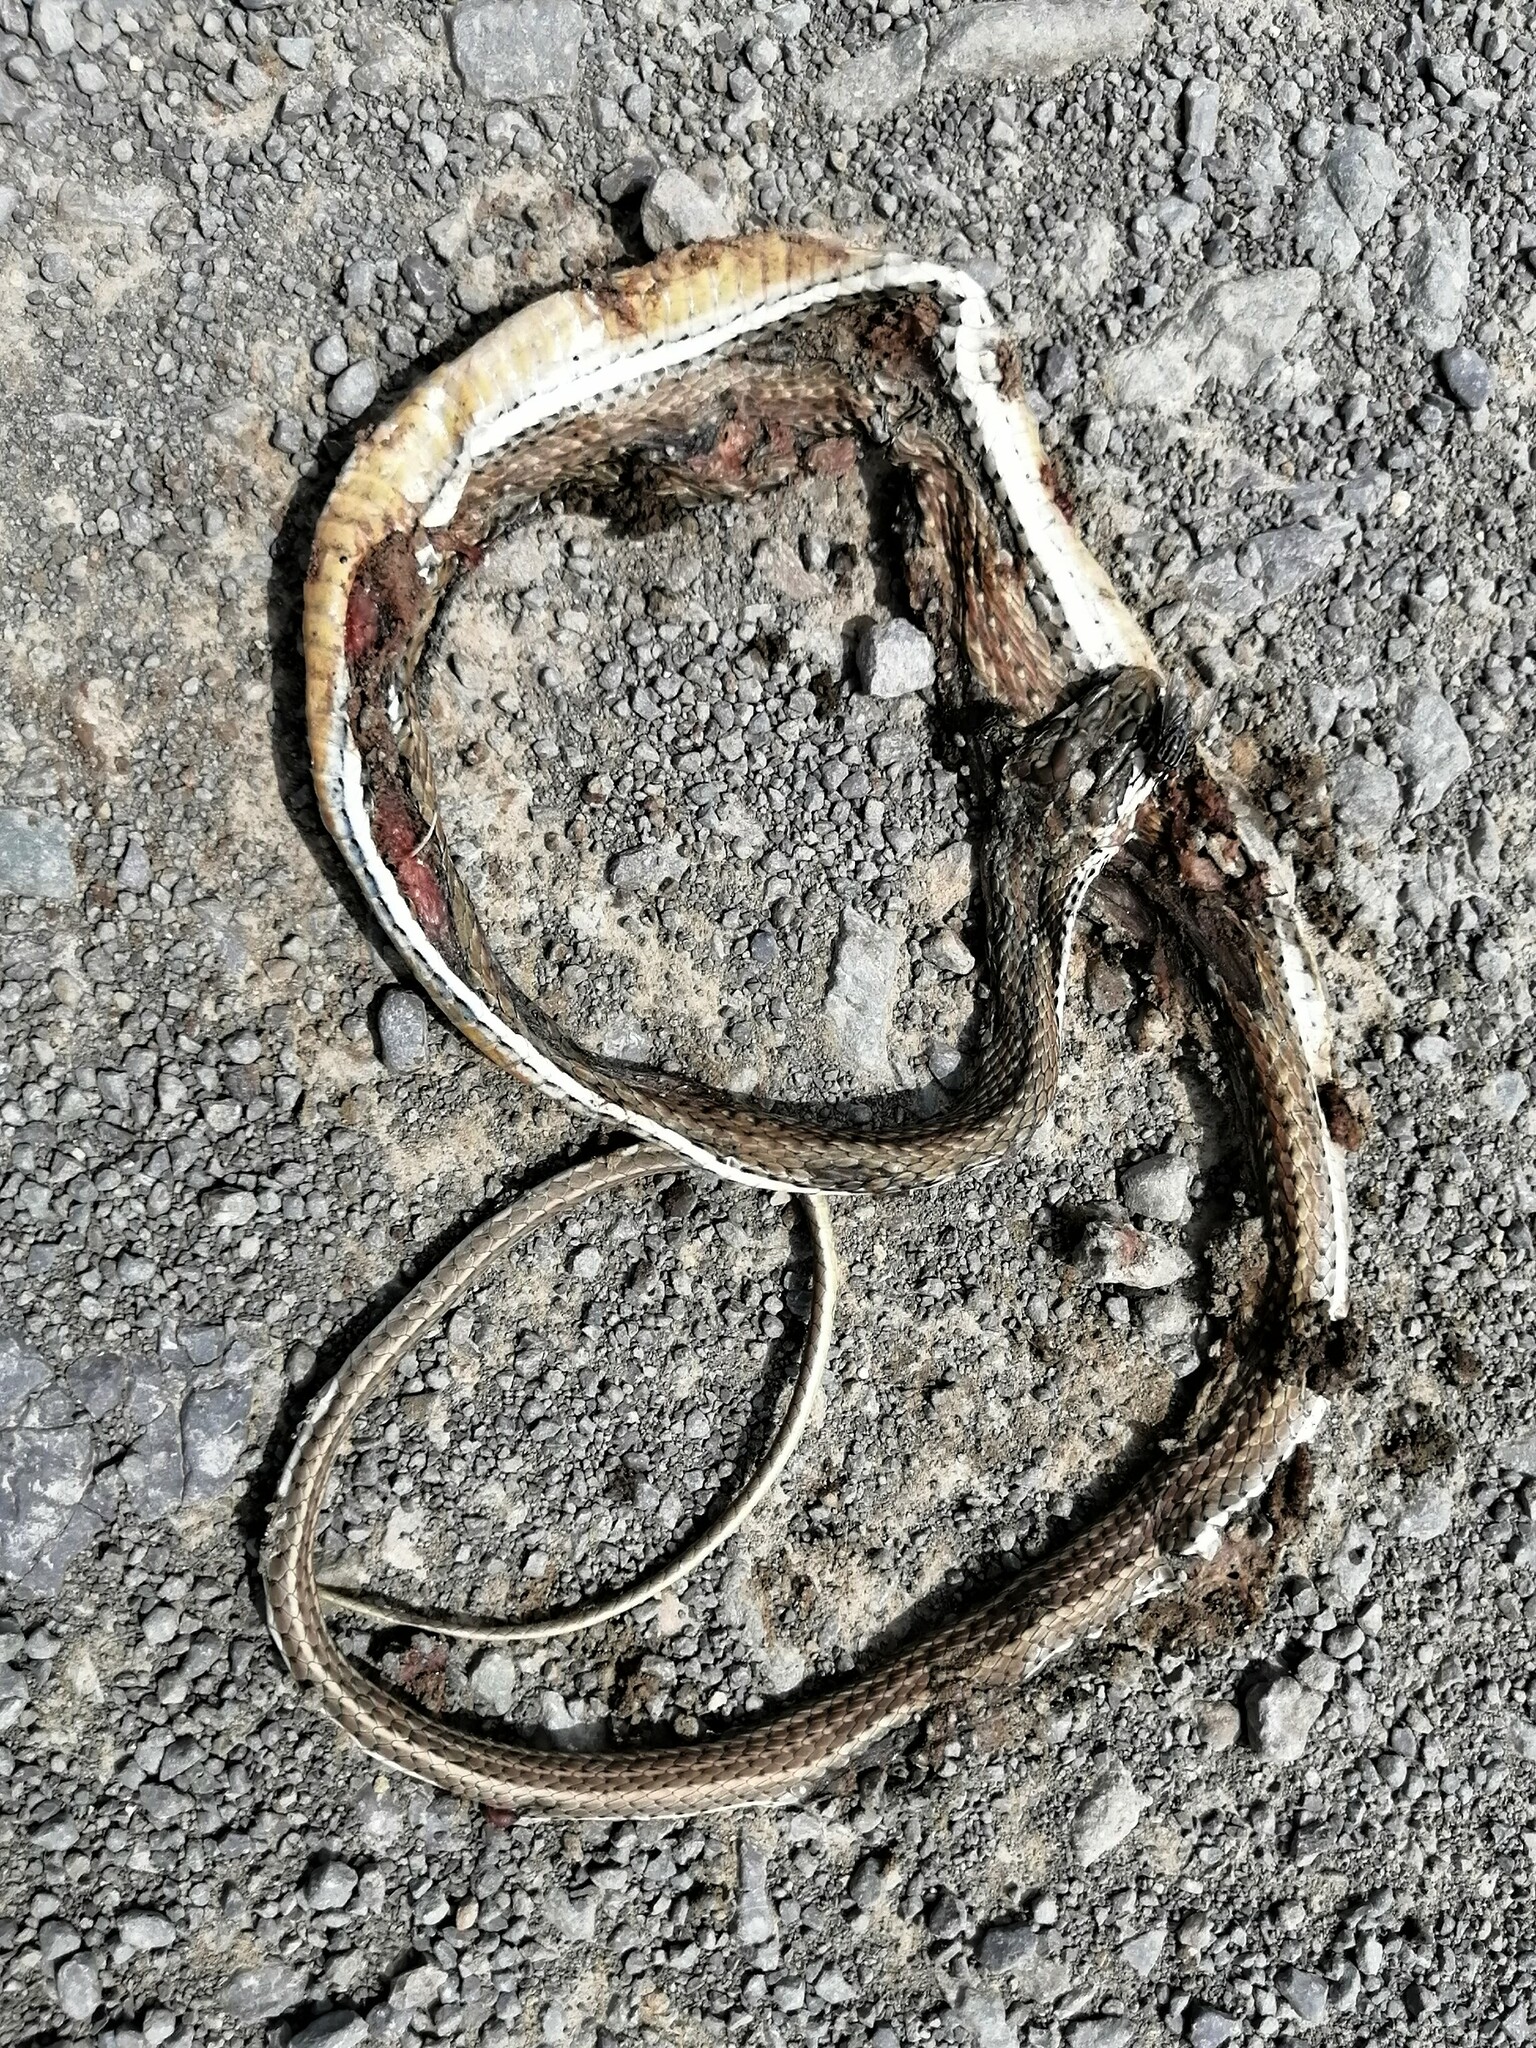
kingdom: Animalia
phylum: Chordata
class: Squamata
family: Psammophiidae
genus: Psammophis
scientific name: Psammophis notostictus
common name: Karoo sand snake
